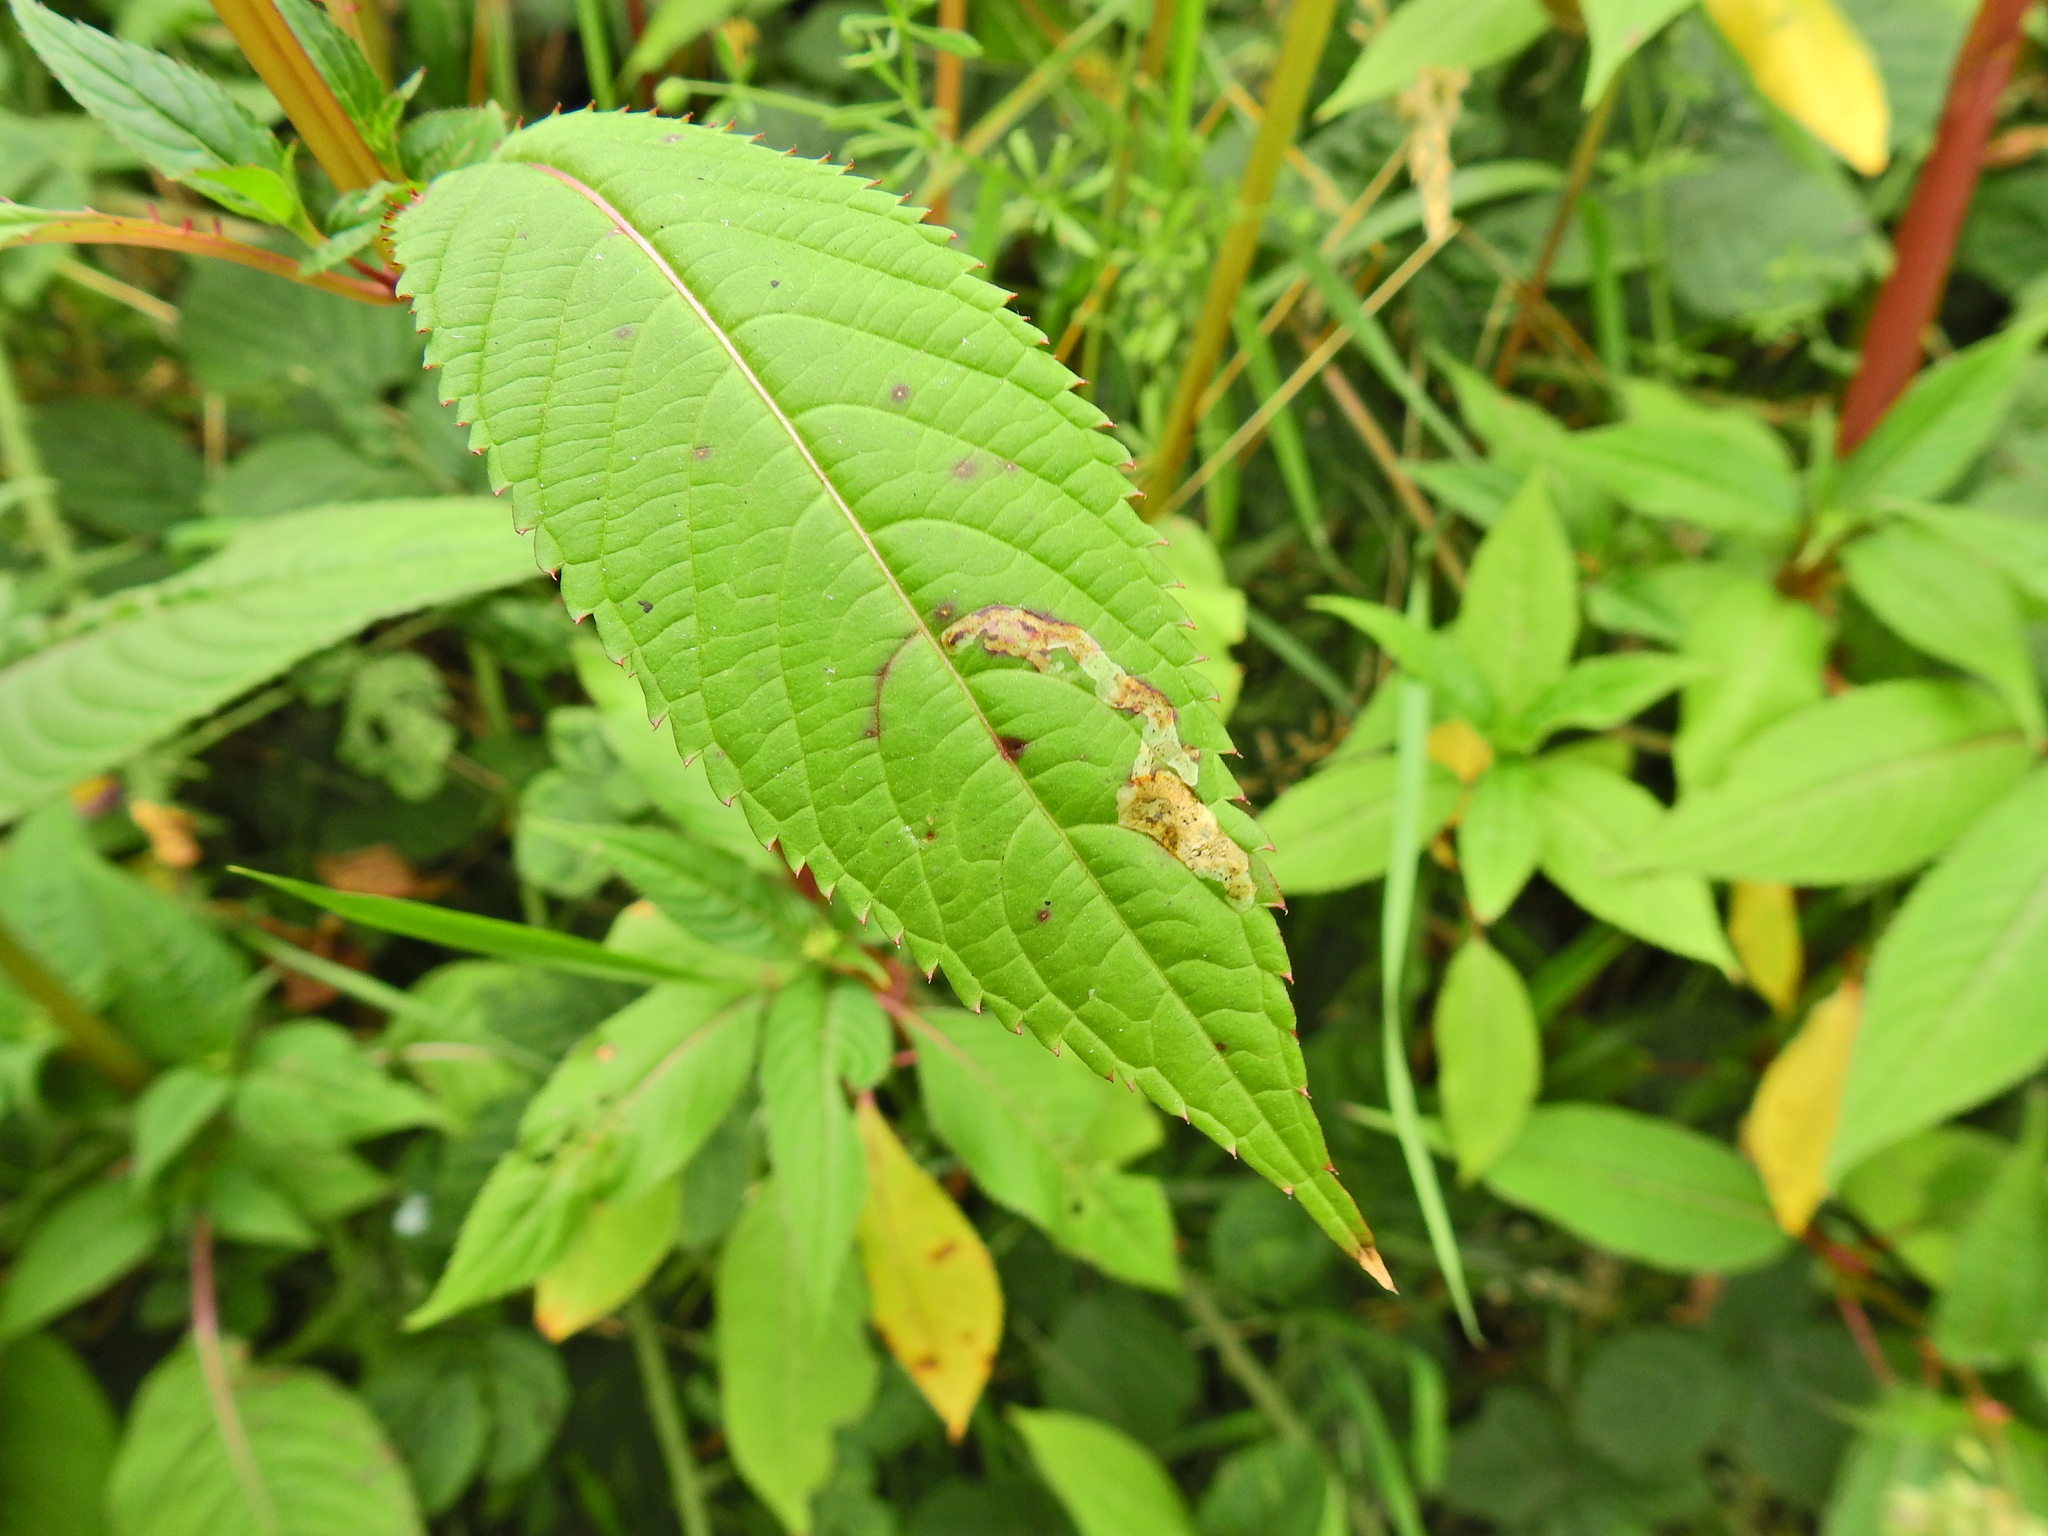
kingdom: Animalia
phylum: Arthropoda
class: Insecta
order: Diptera
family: Agromyzidae
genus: Phytoliriomyza
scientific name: Phytoliriomyza melampyga
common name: Jewelweed leaf-miner fly
